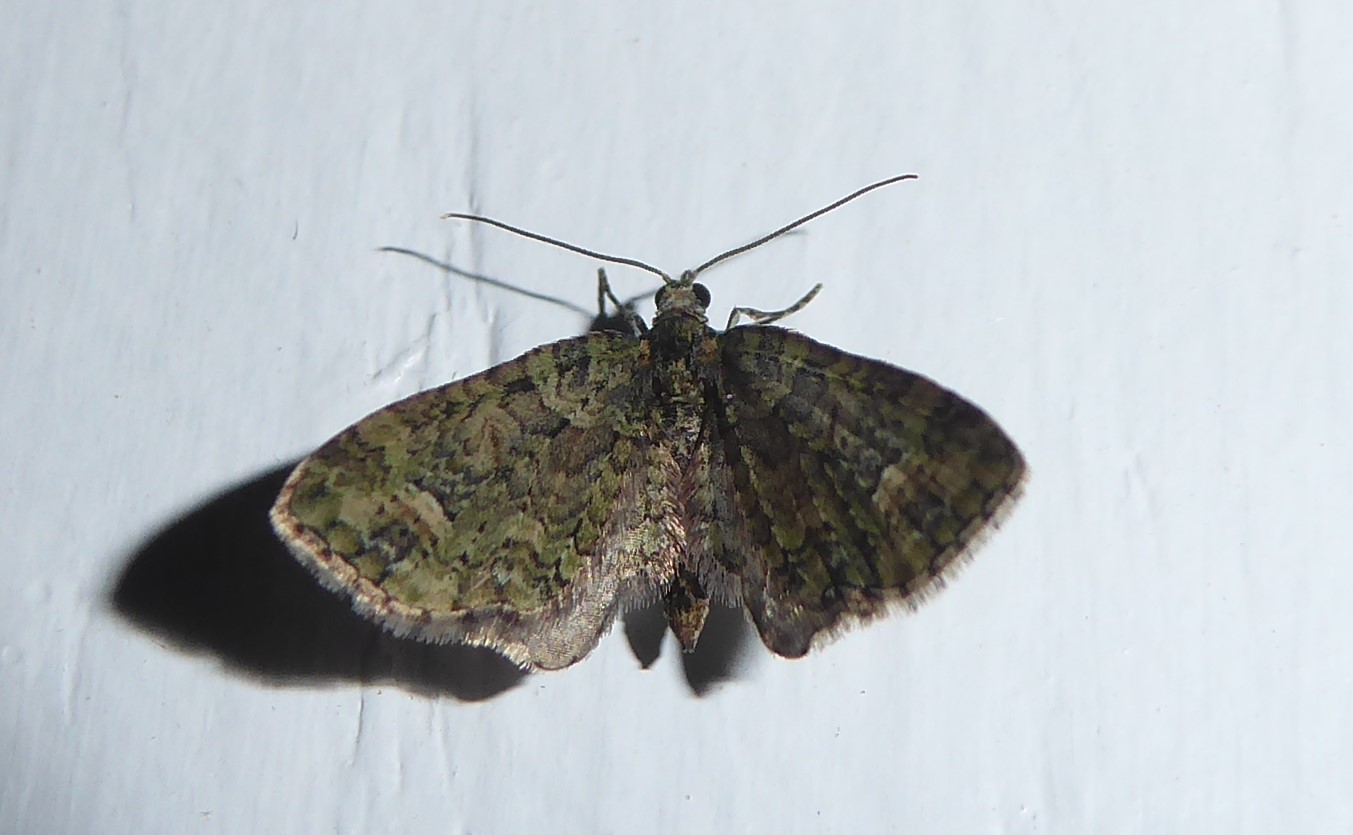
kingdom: Animalia
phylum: Arthropoda
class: Insecta
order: Lepidoptera
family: Geometridae
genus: Idaea
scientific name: Idaea mutanda
